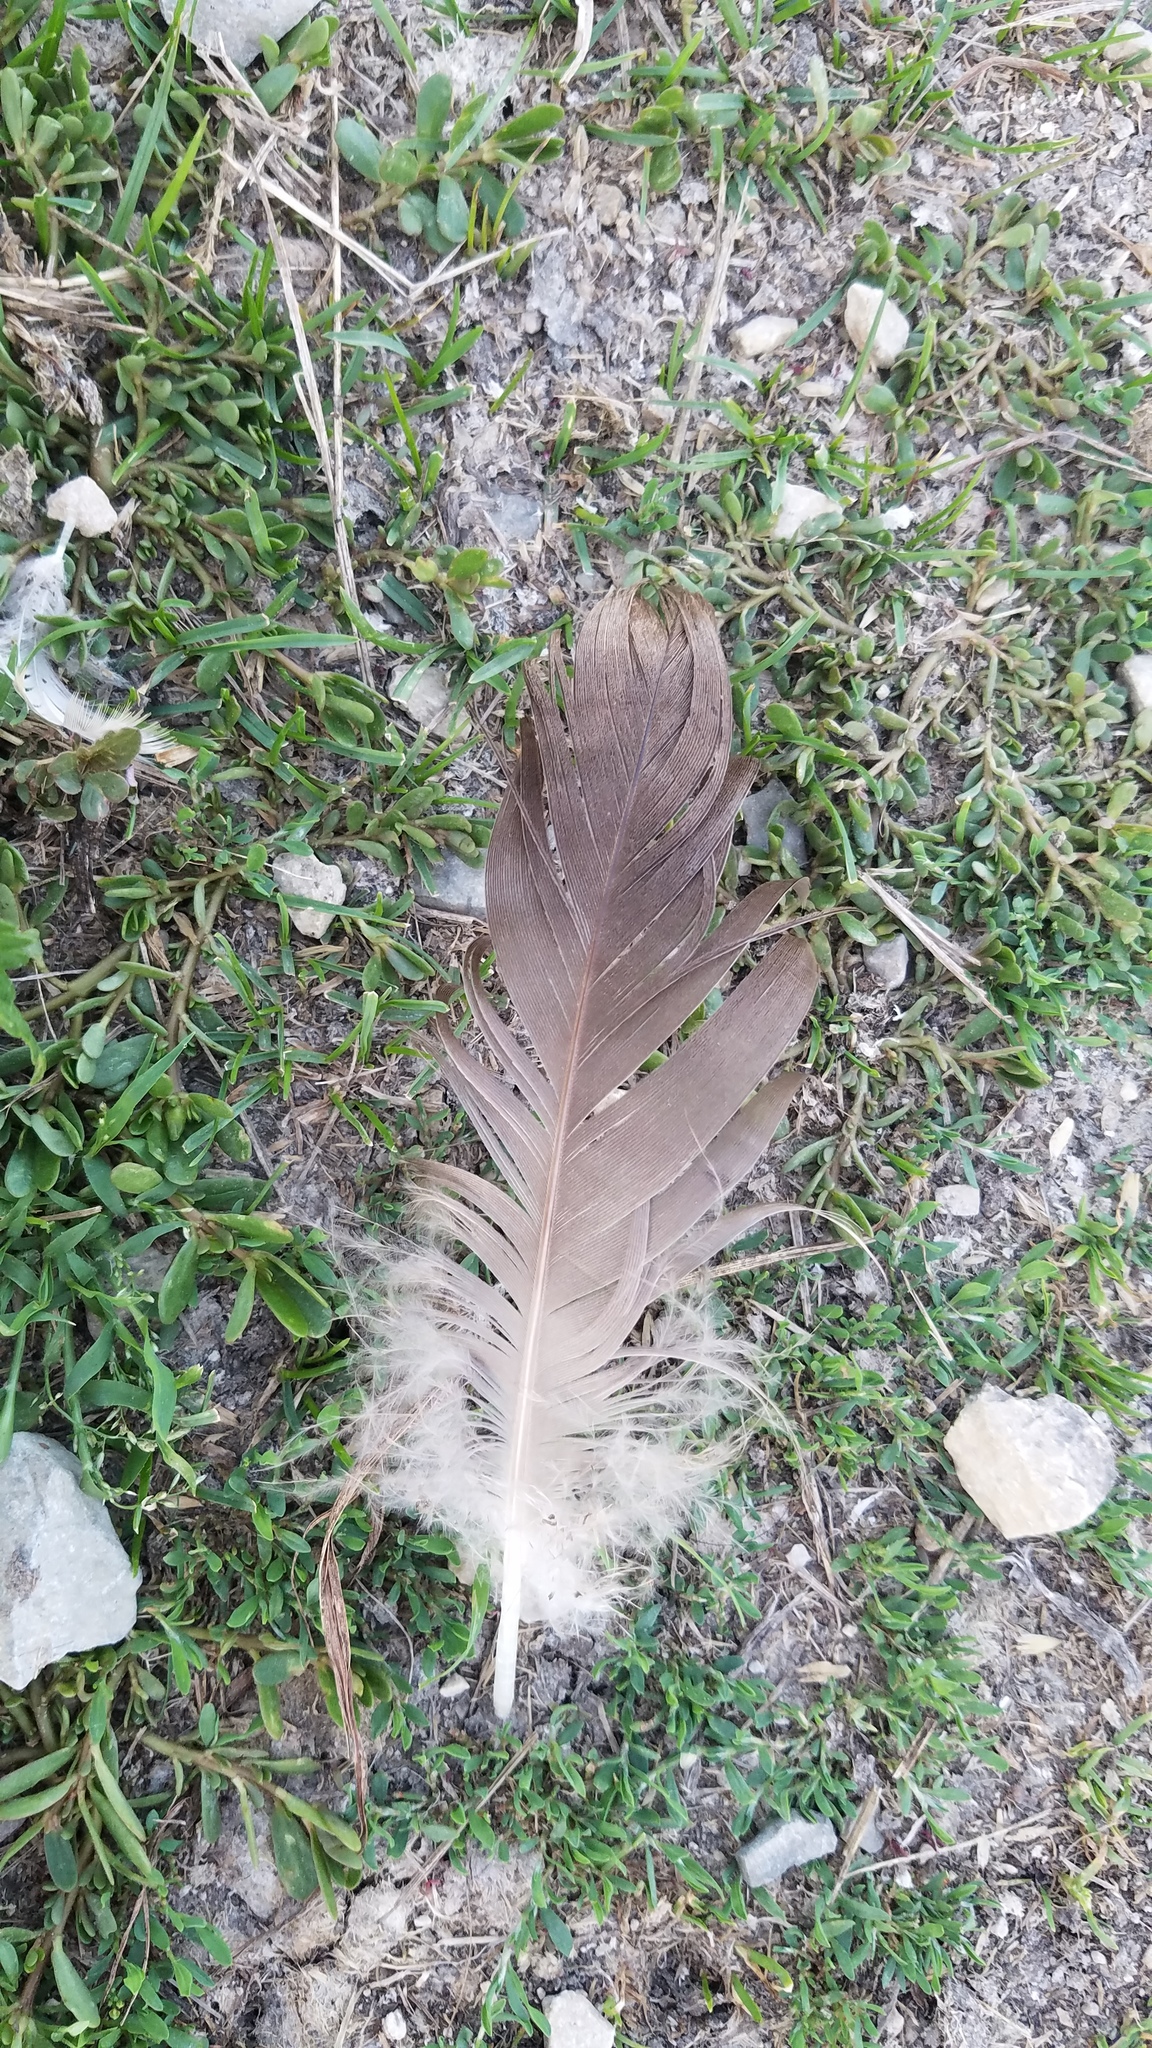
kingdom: Animalia
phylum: Chordata
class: Aves
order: Anseriformes
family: Anatidae
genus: Branta
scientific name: Branta canadensis
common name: Canada goose
